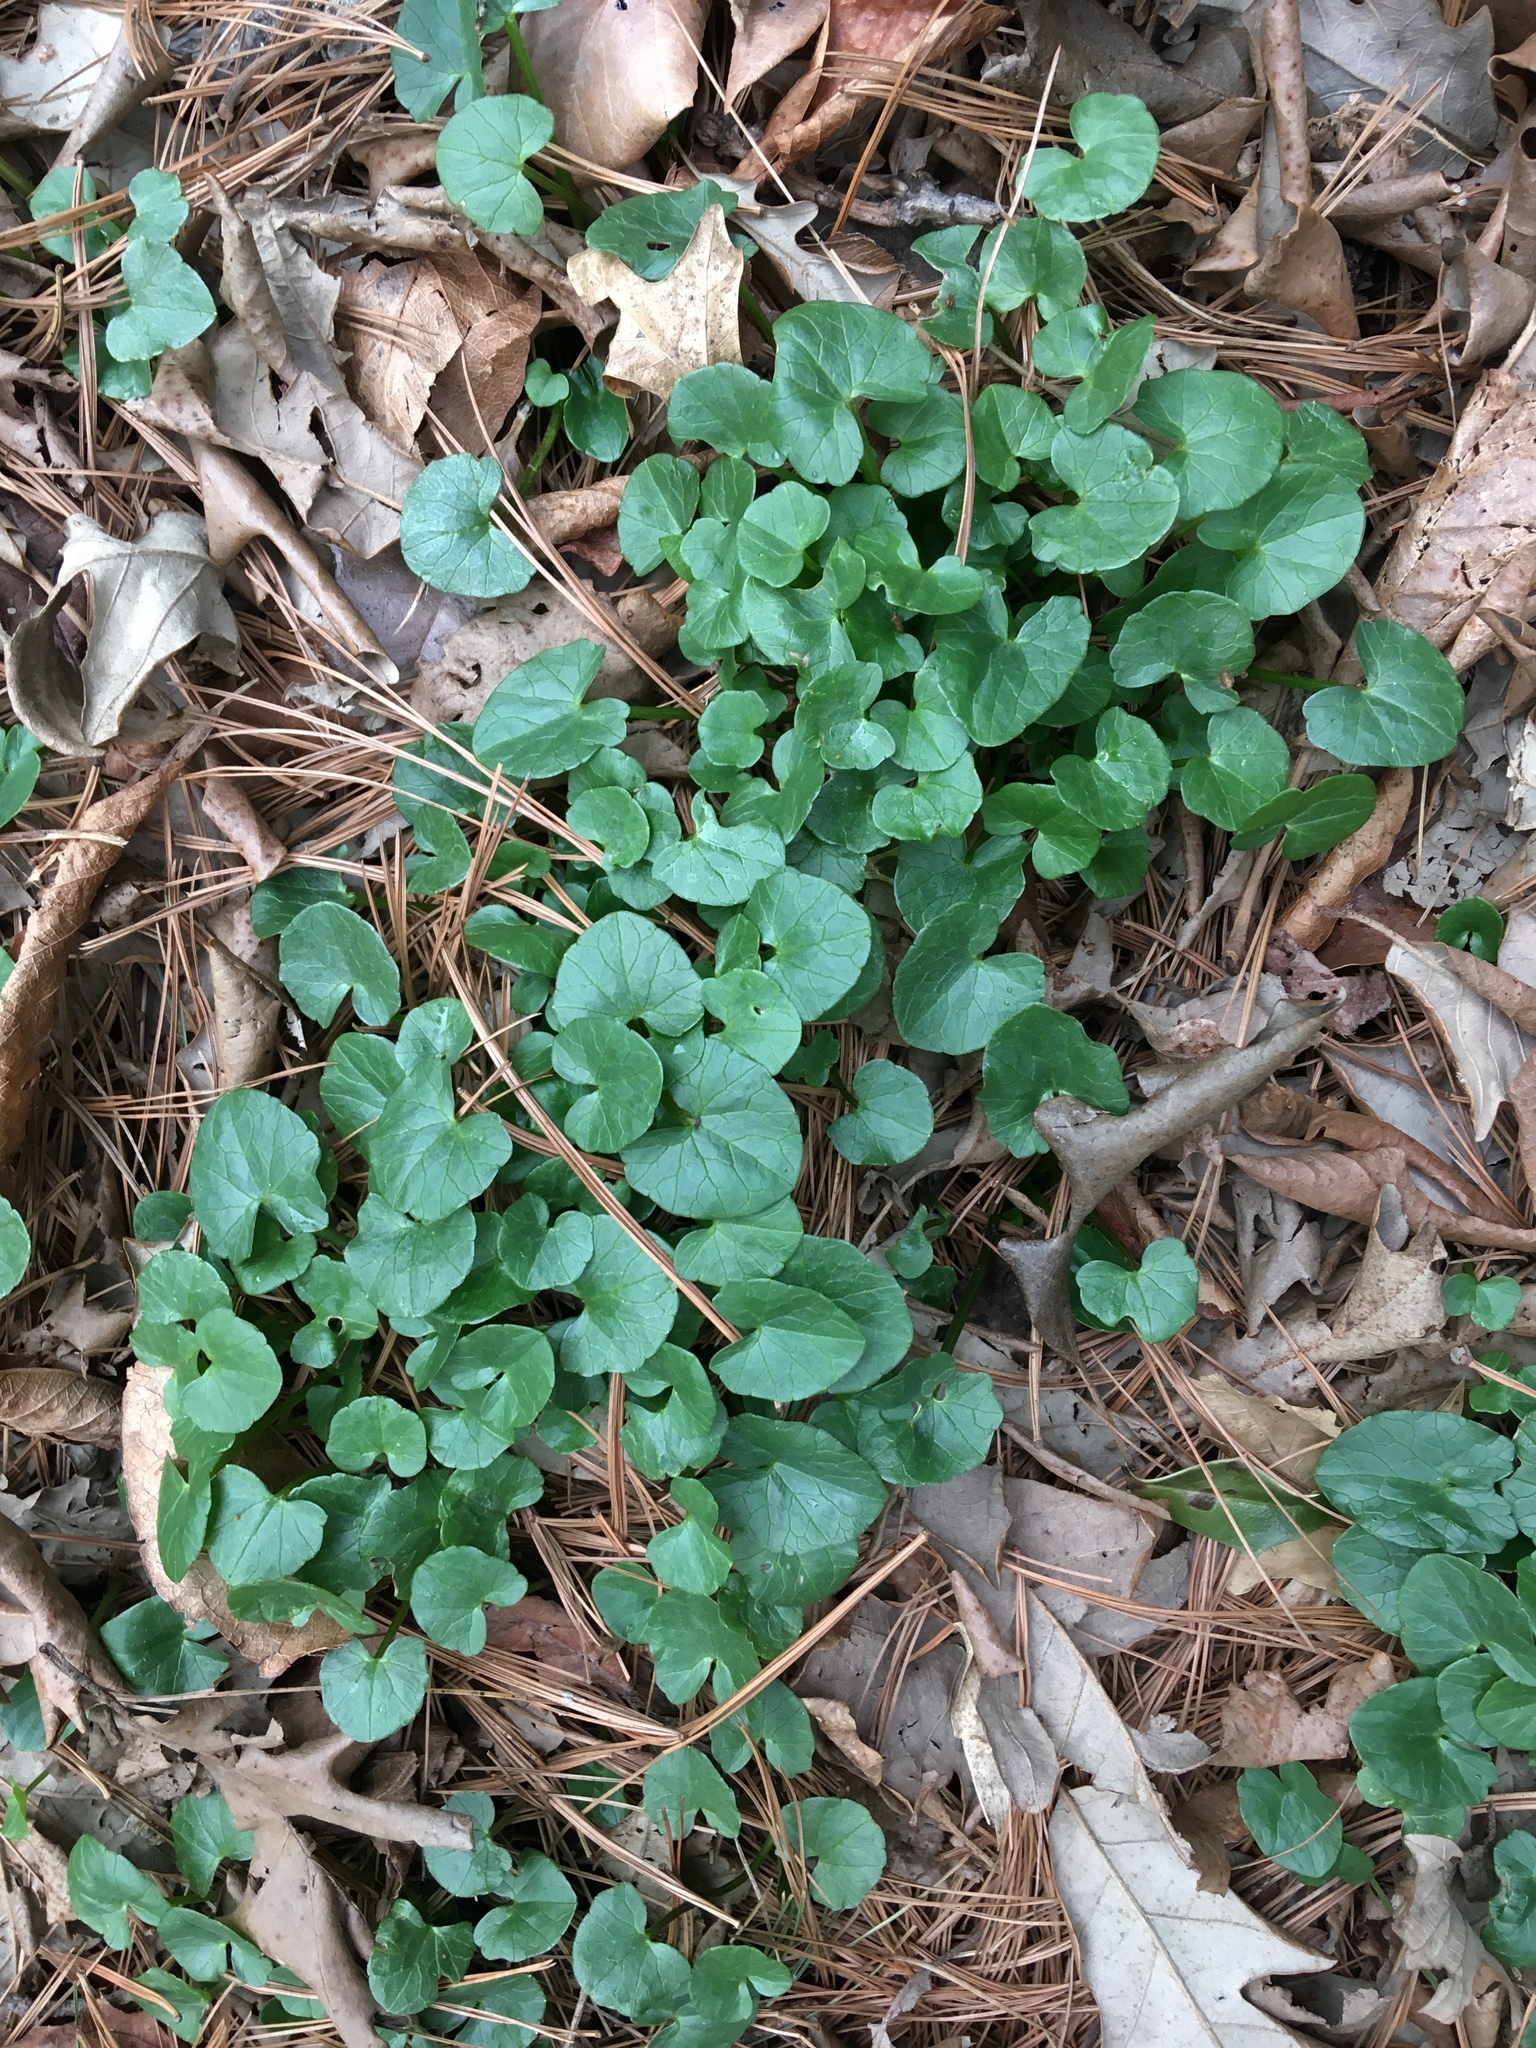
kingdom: Plantae
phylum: Tracheophyta
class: Magnoliopsida
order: Ranunculales
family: Ranunculaceae
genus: Ficaria
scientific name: Ficaria verna
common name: Lesser celandine
